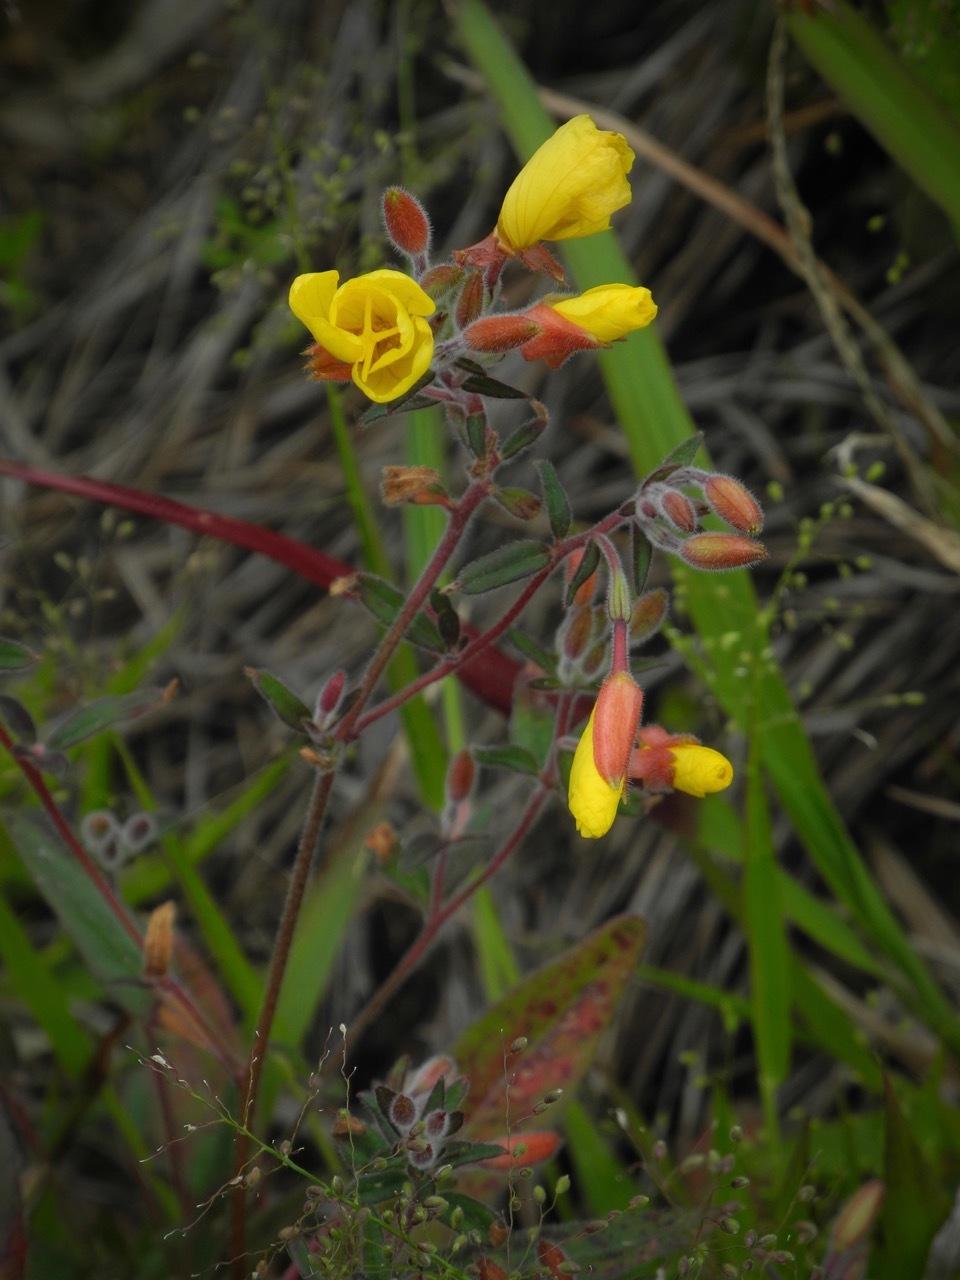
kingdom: Plantae
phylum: Tracheophyta
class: Magnoliopsida
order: Myrtales
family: Onagraceae
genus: Oenothera
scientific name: Oenothera fruticosa
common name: Southern sundrops
